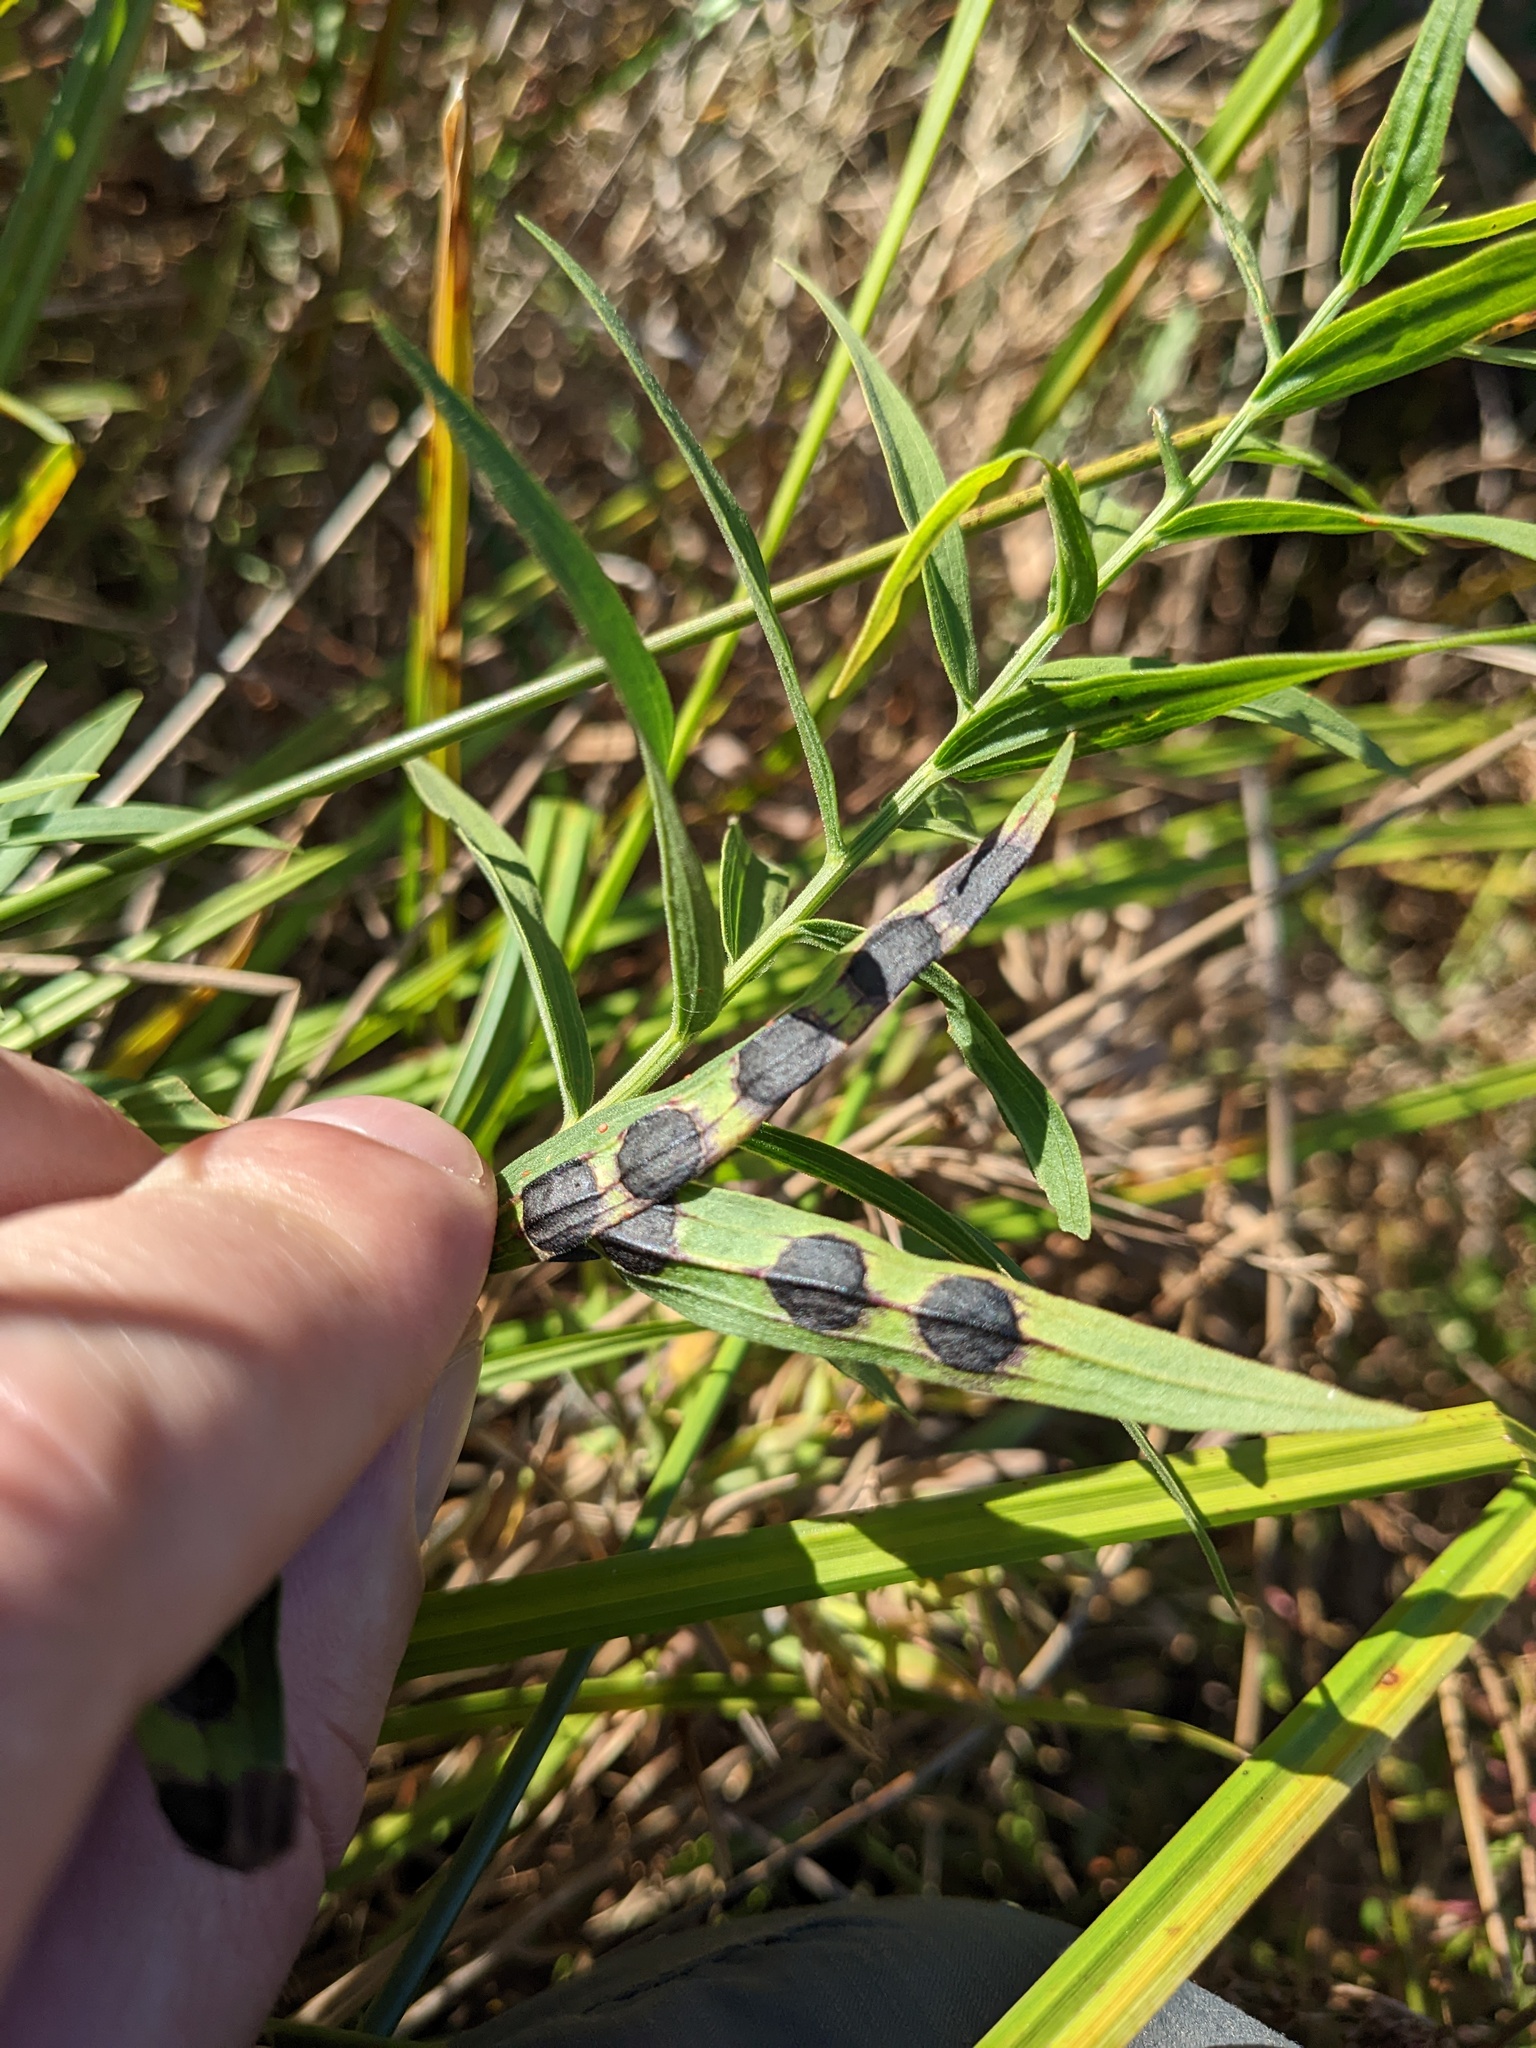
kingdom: Animalia
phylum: Arthropoda
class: Insecta
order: Diptera
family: Cecidomyiidae
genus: Asteromyia
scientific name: Asteromyia euthamiae
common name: Euthamia leaf gall midge
